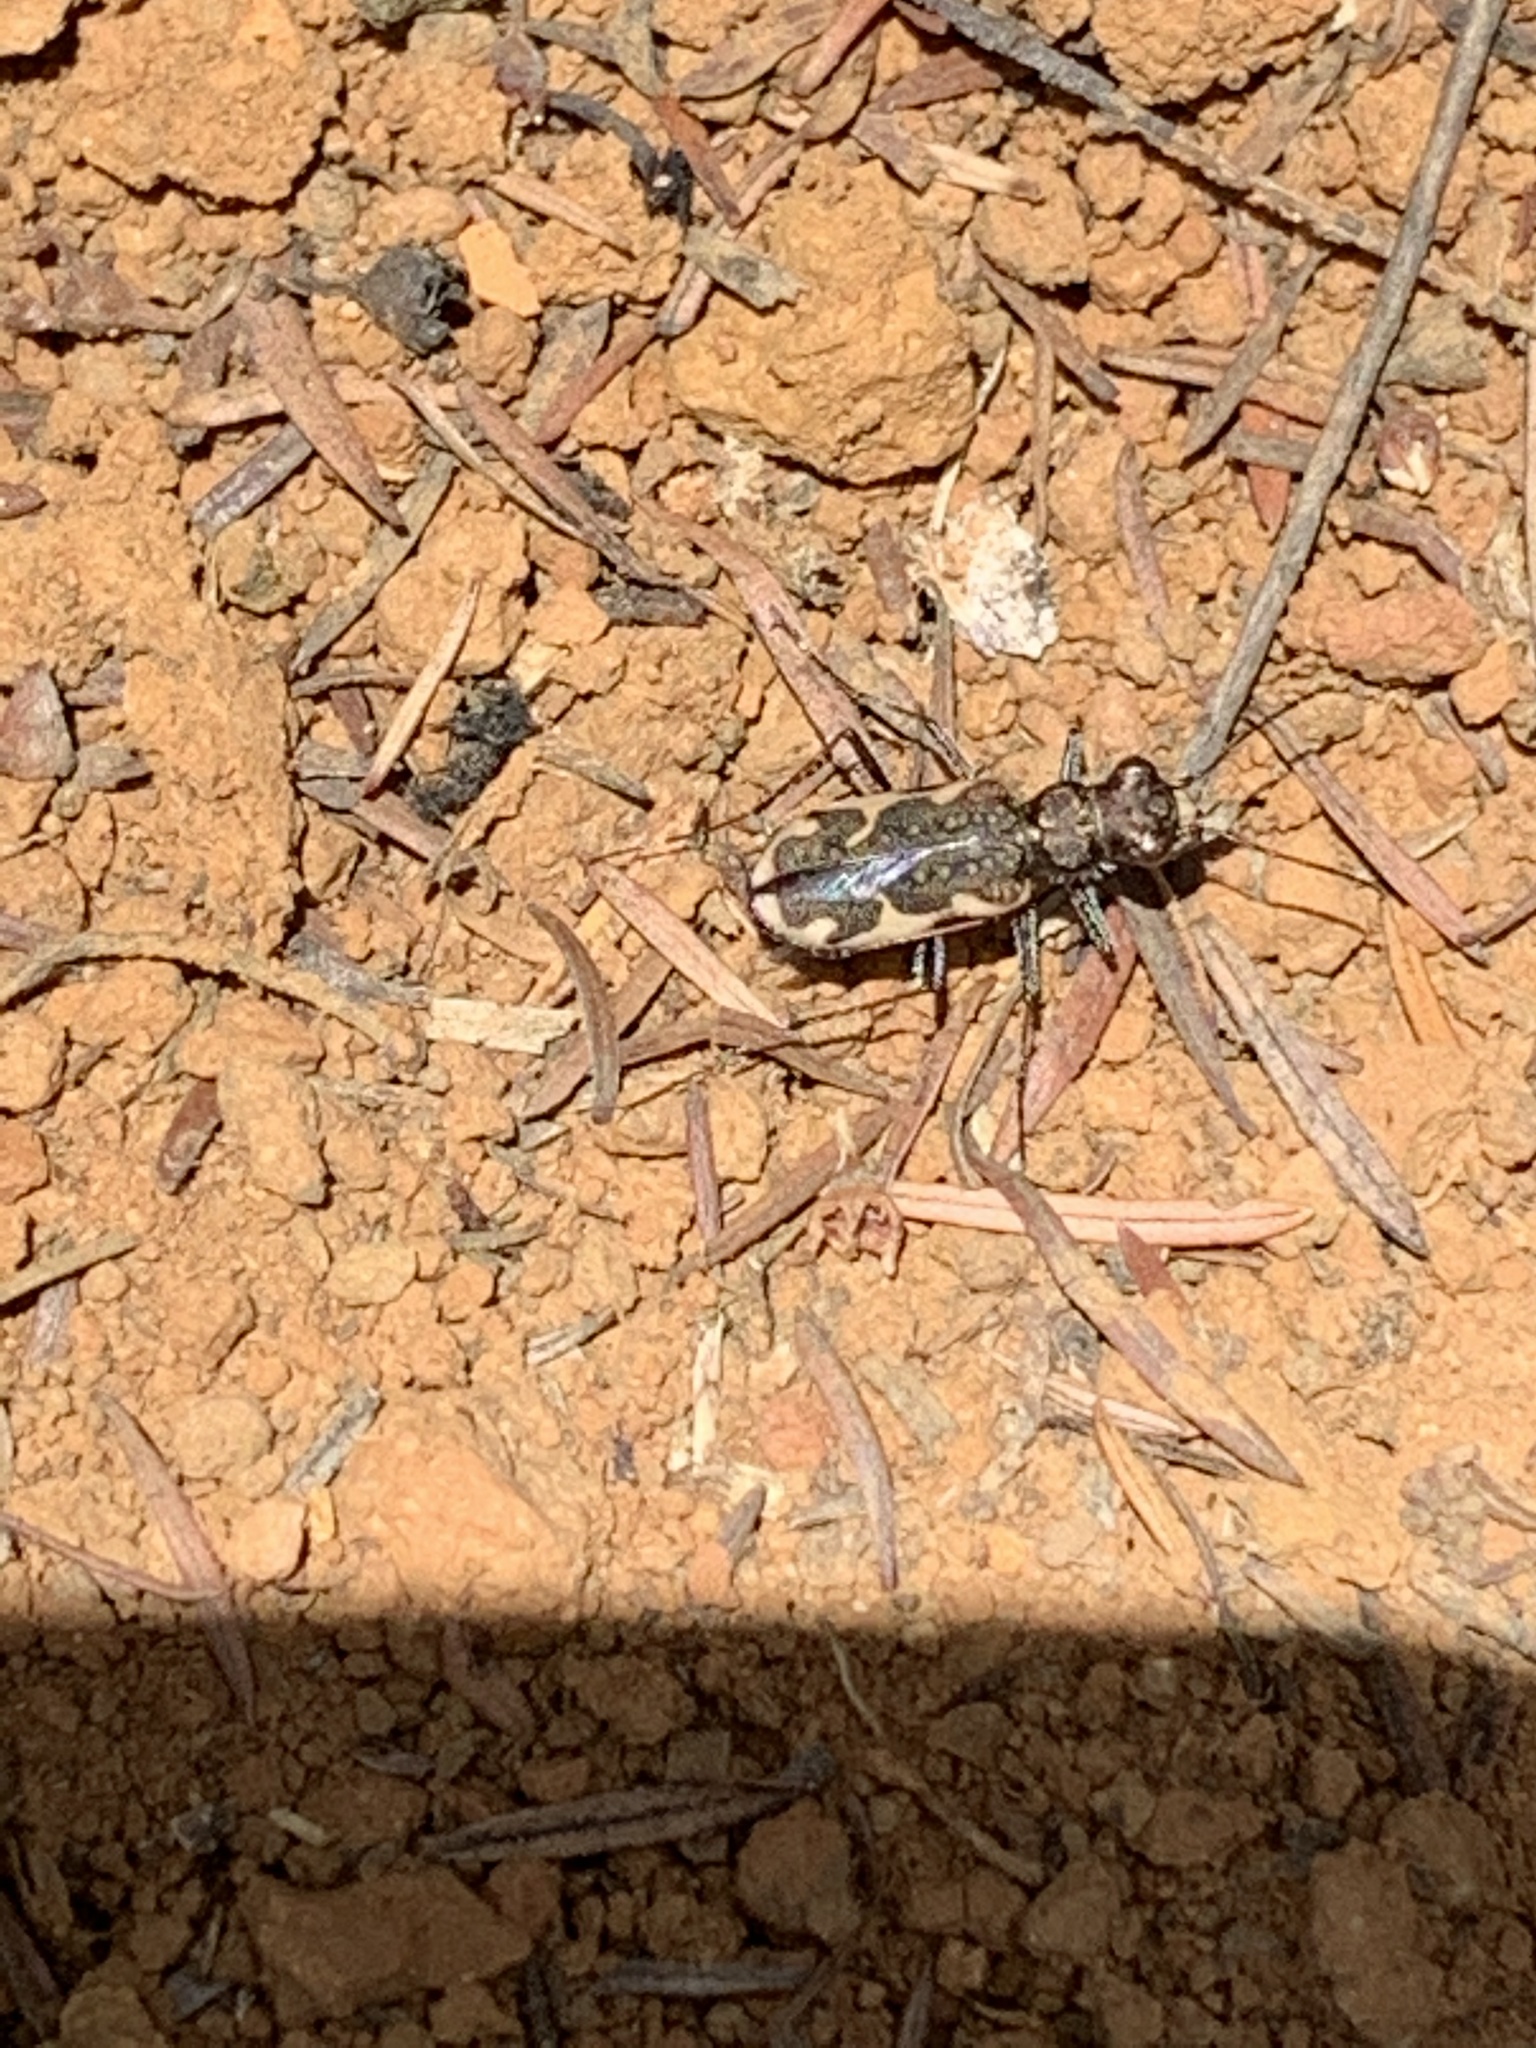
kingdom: Animalia
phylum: Arthropoda
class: Insecta
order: Coleoptera
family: Carabidae
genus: Neocicindela
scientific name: Neocicindela tuberculata
